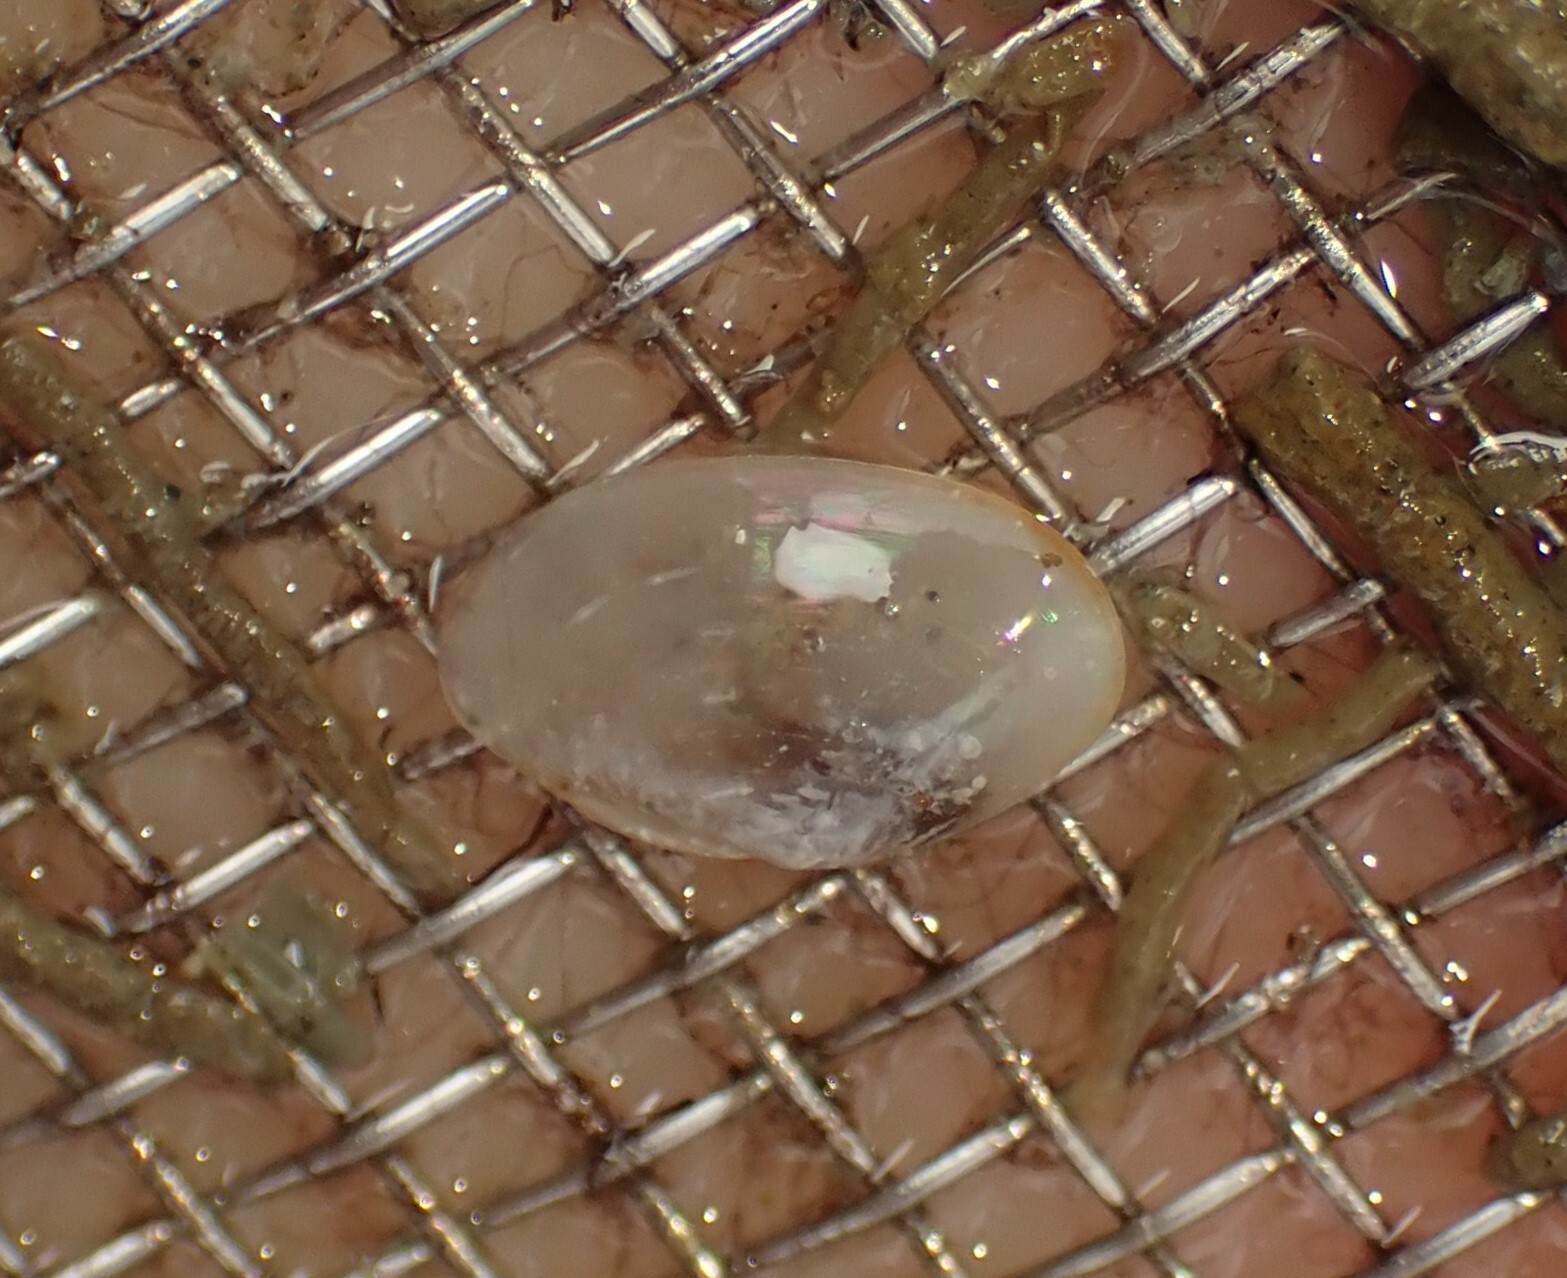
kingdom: Animalia
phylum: Mollusca
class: Bivalvia
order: Cardiida
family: Semelidae
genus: Theora
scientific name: Theora lubrica
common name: Asian semele
